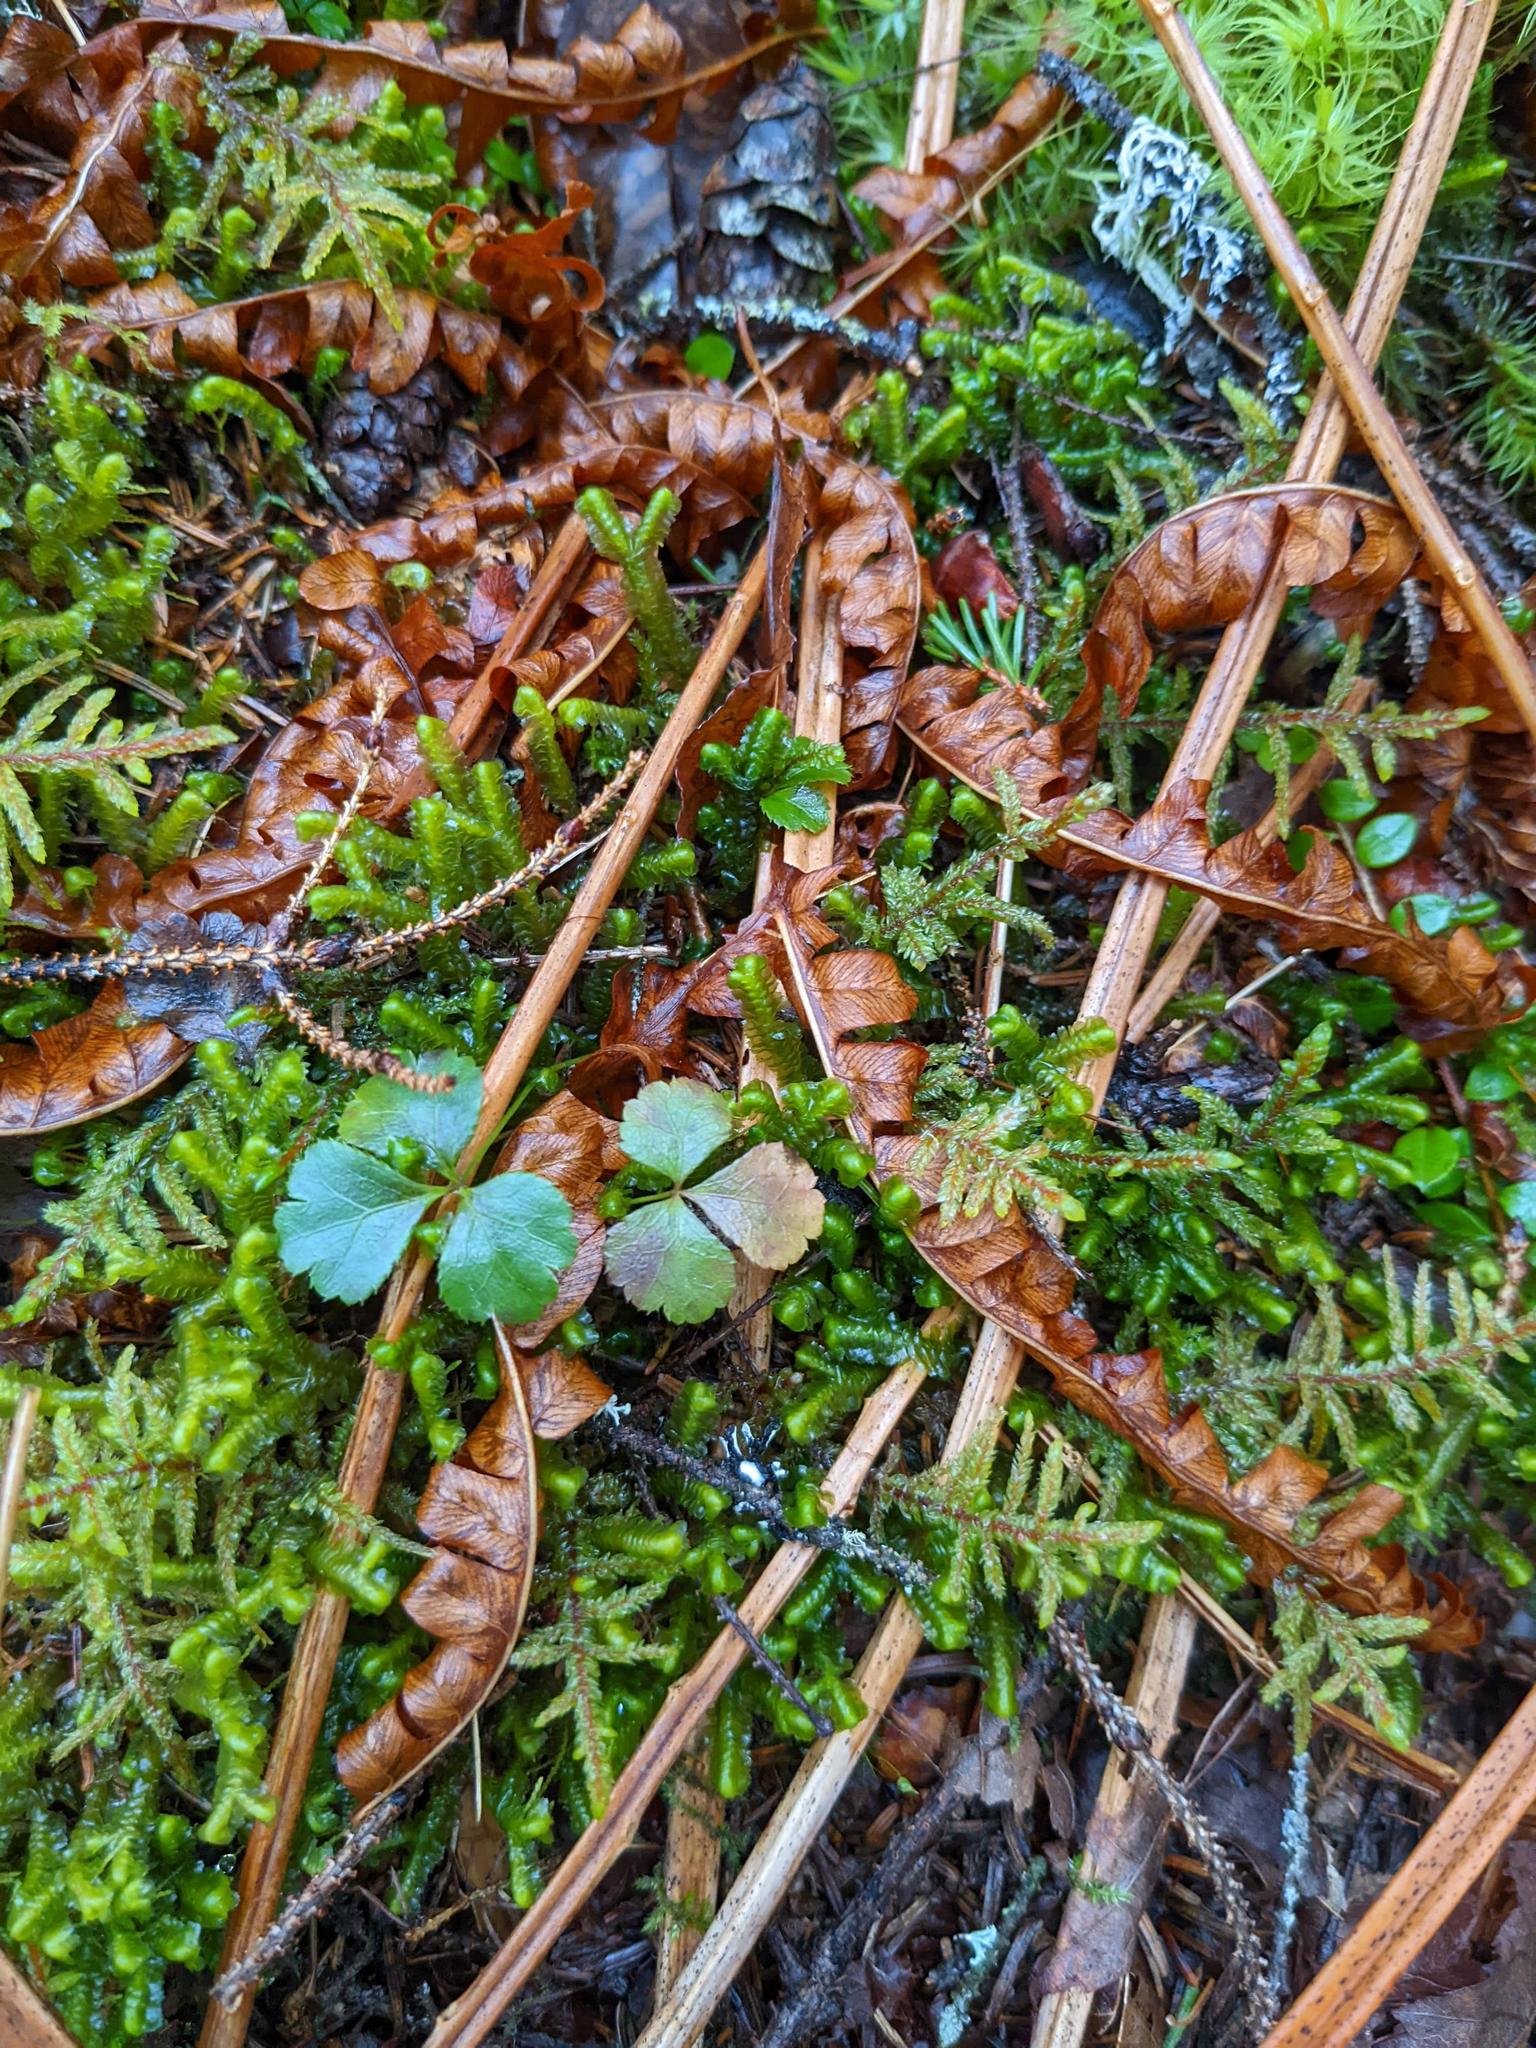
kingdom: Plantae
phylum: Tracheophyta
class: Polypodiopsida
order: Polypodiales
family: Dennstaedtiaceae
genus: Pteridium
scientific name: Pteridium aquilinum
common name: Bracken
